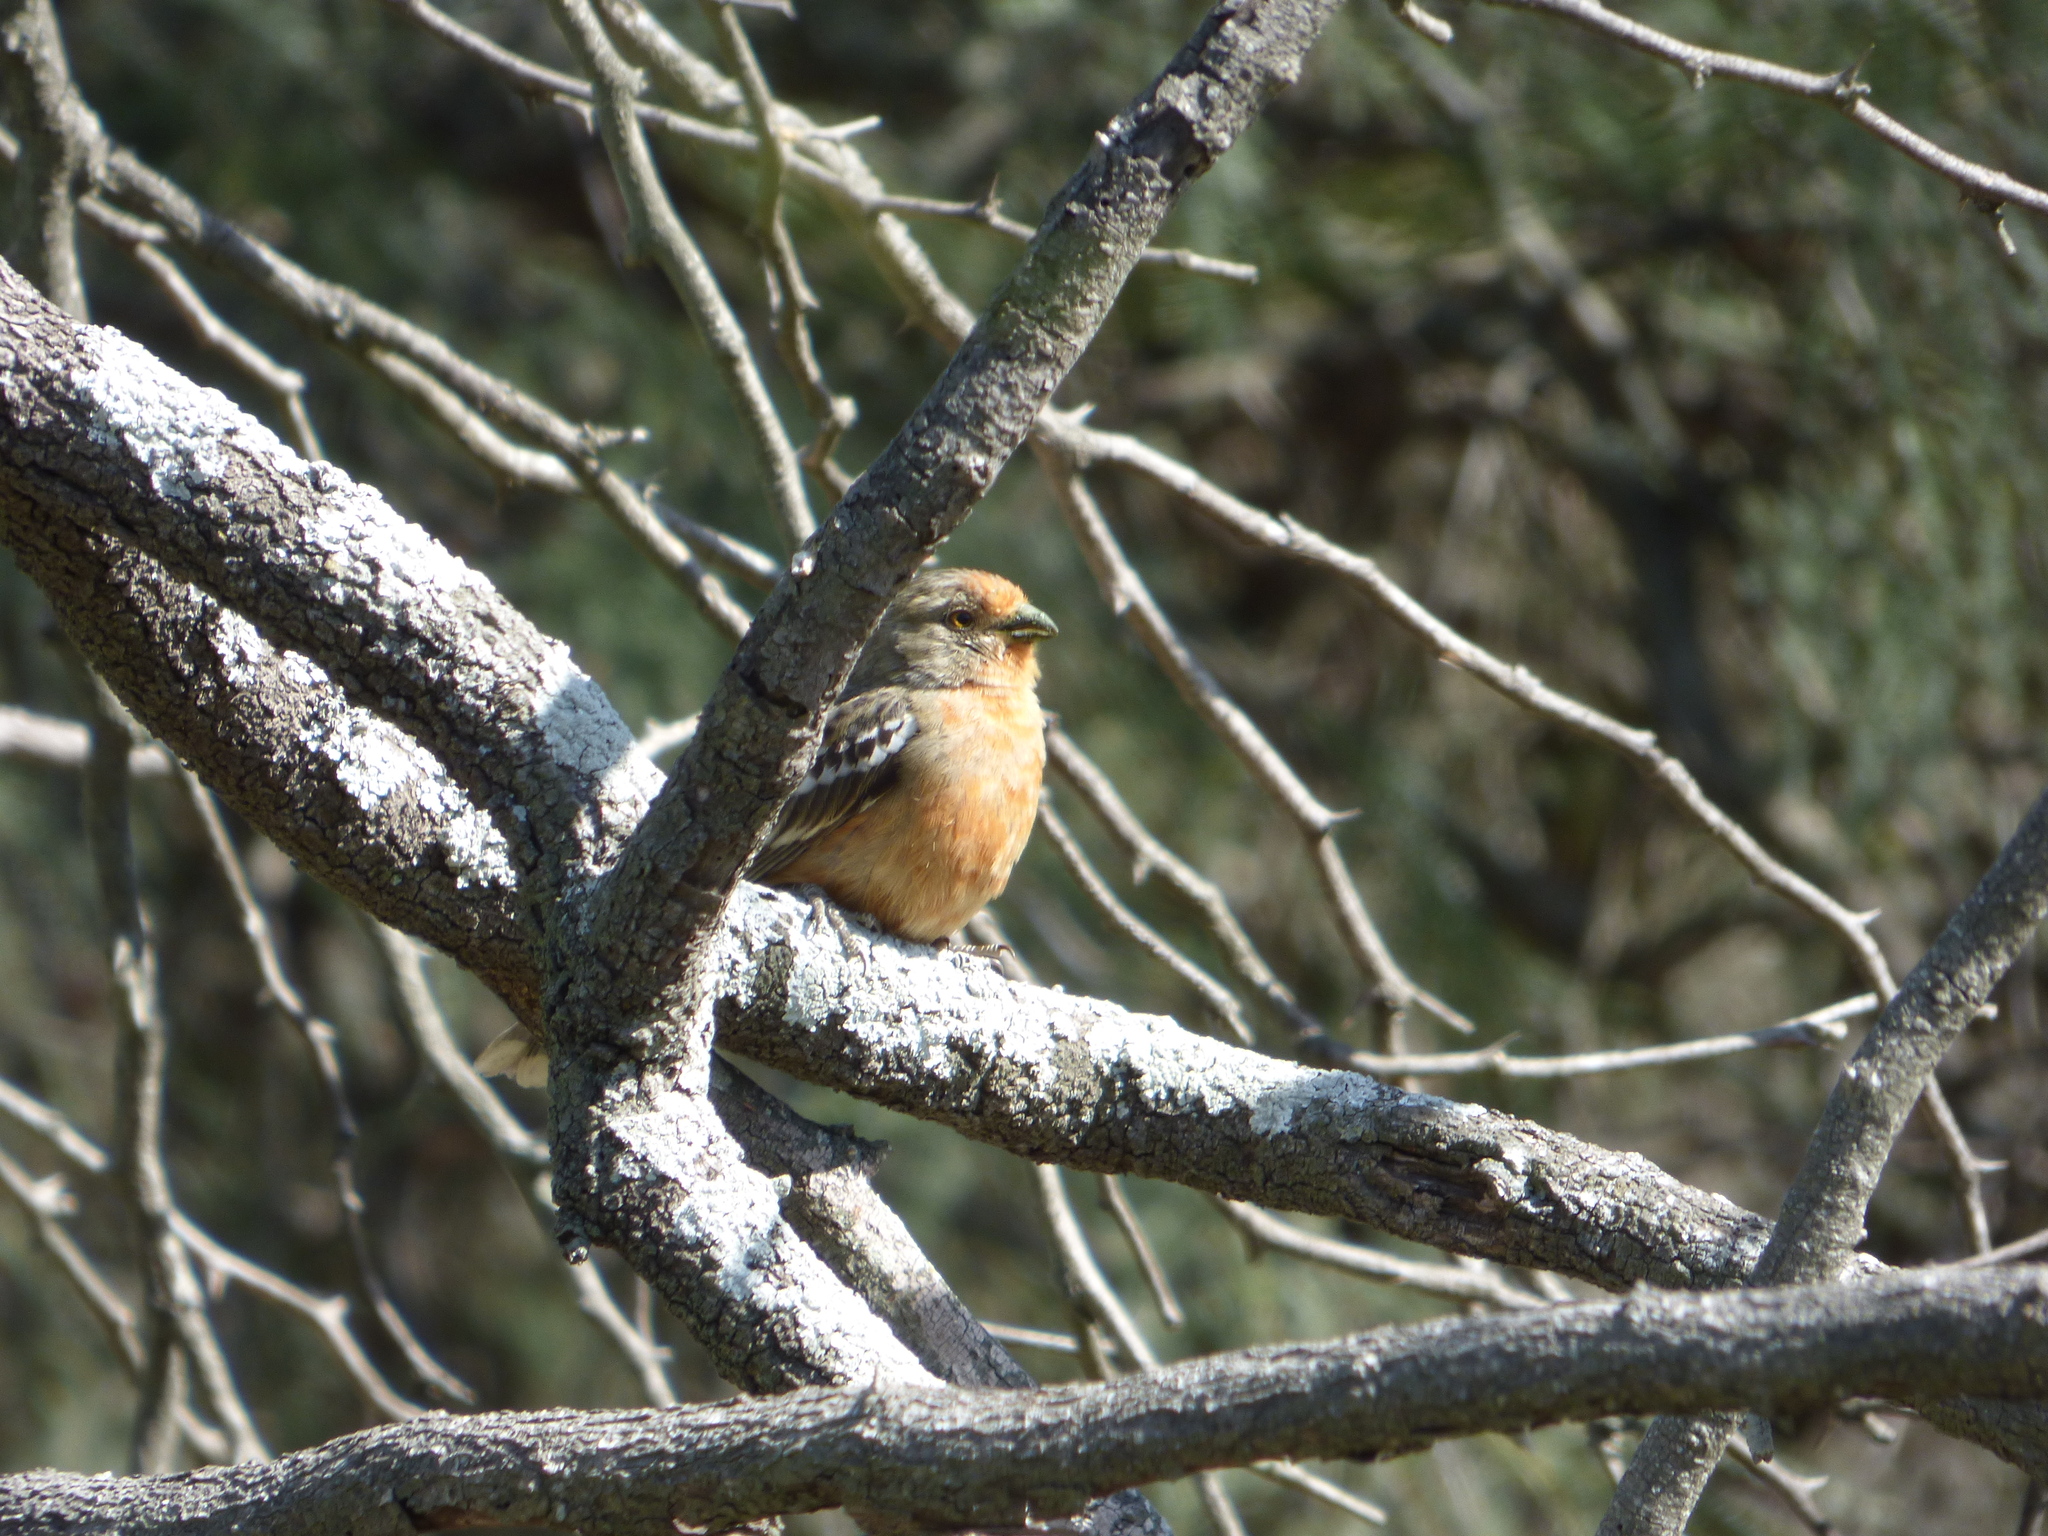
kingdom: Animalia
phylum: Chordata
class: Aves
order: Passeriformes
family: Cotingidae
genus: Phytotoma
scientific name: Phytotoma rutila
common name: White-tipped plantcutter
